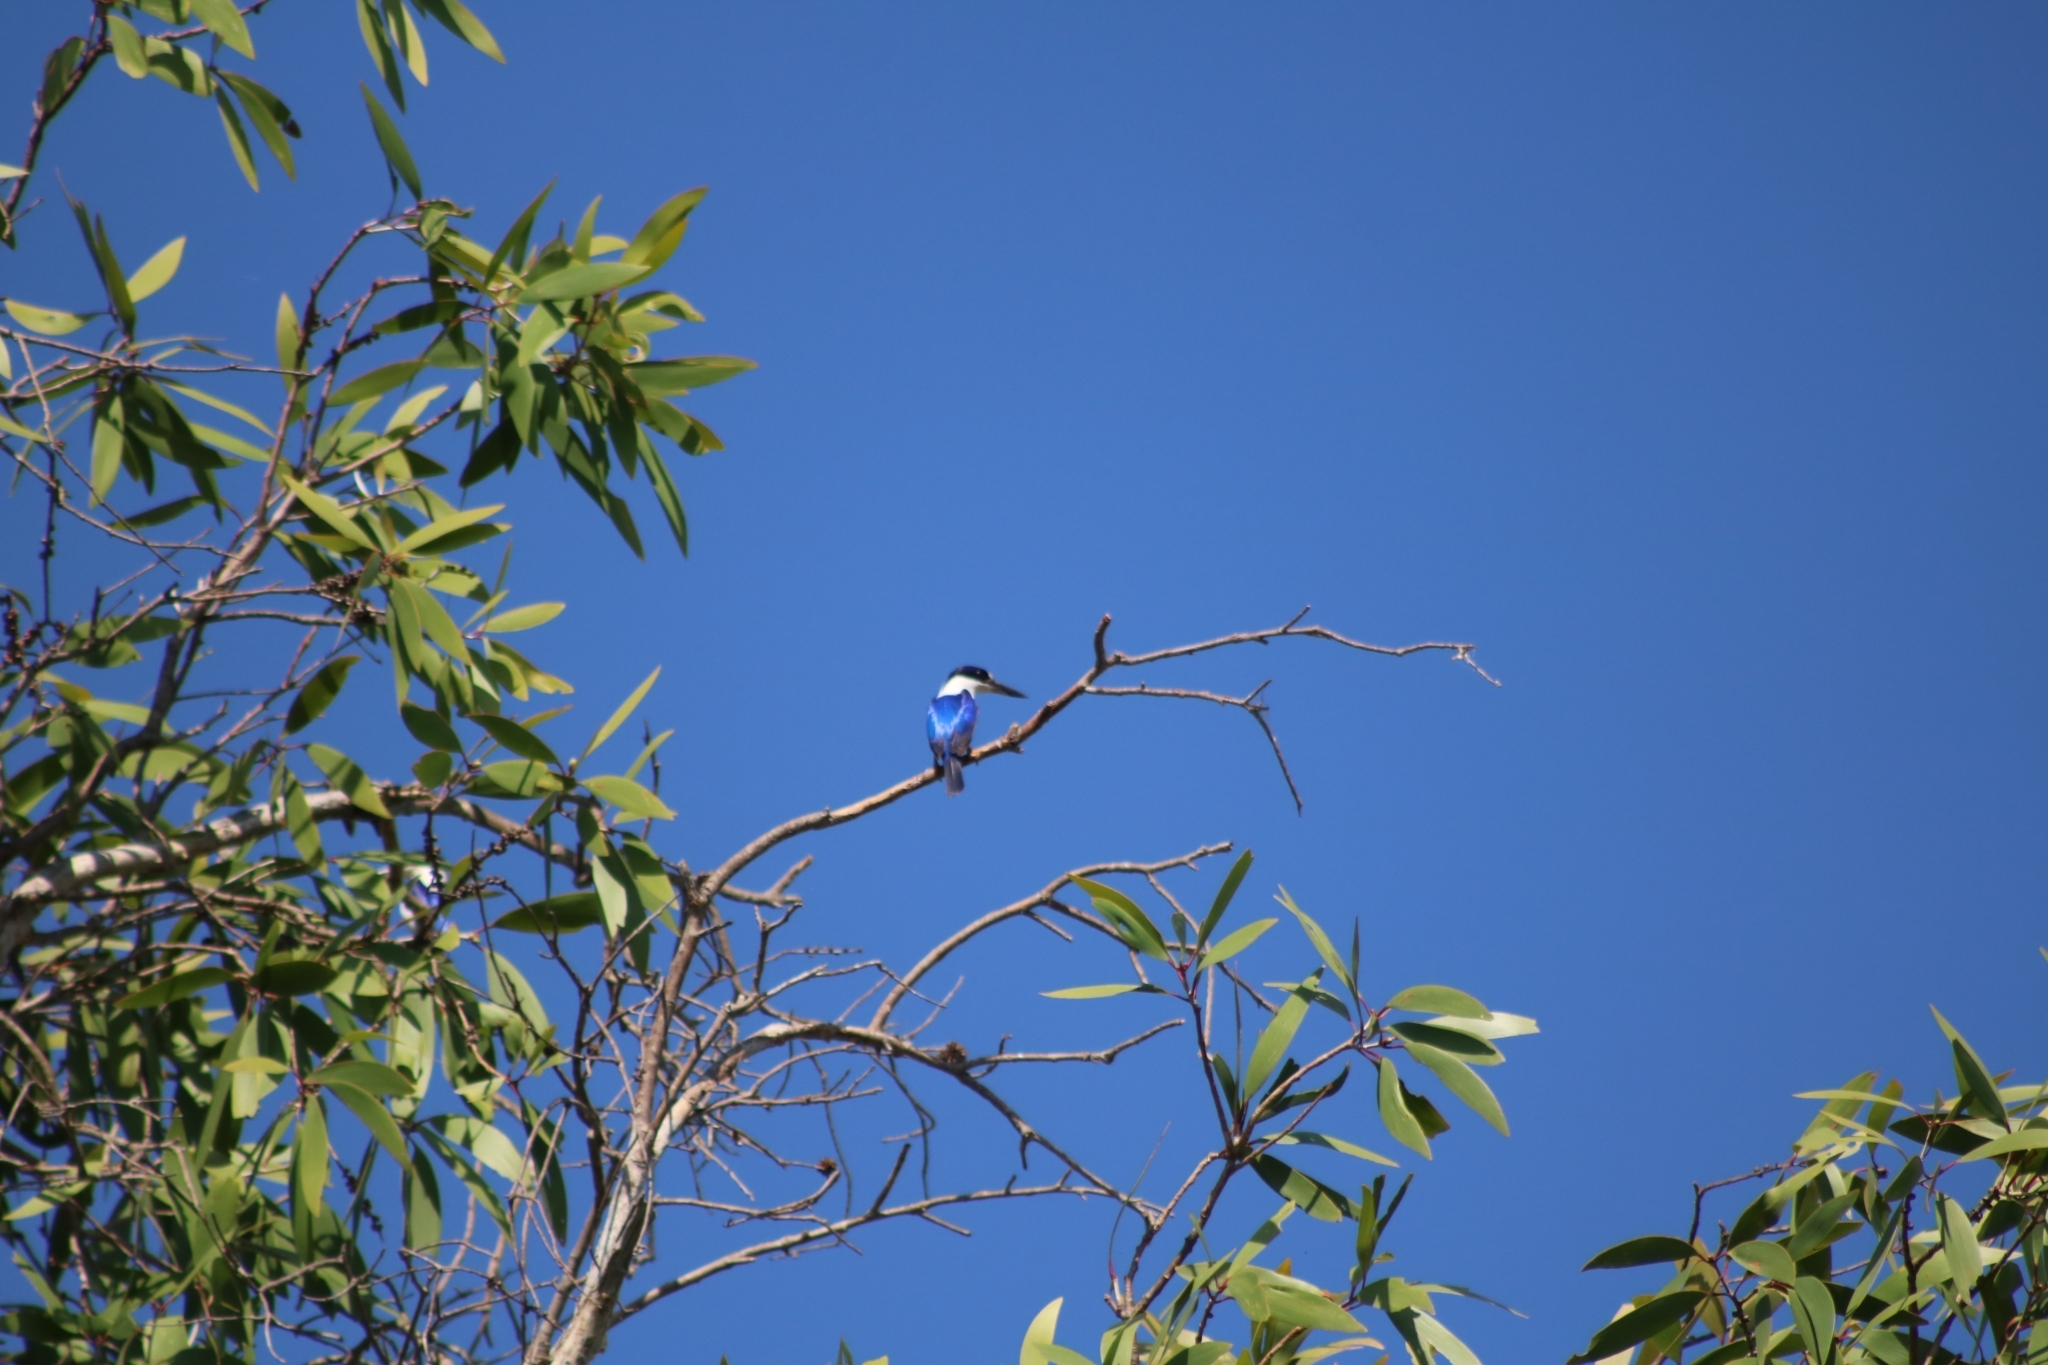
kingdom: Animalia
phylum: Chordata
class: Aves
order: Coraciiformes
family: Alcedinidae
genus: Todiramphus
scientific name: Todiramphus macleayii
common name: Forest kingfisher
